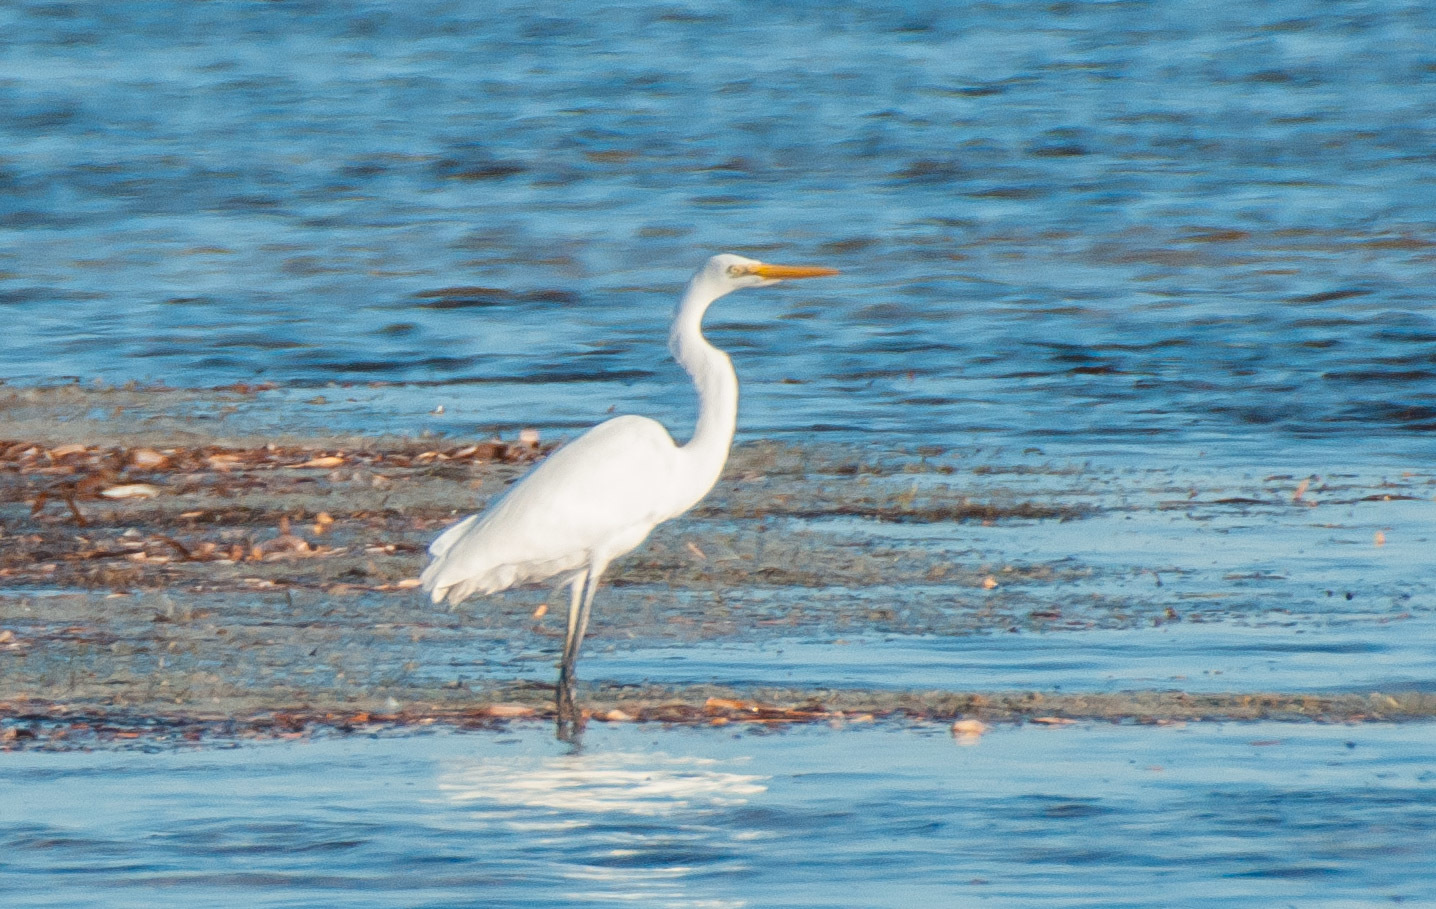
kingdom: Animalia
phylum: Chordata
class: Aves
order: Pelecaniformes
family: Ardeidae
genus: Ardea
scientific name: Ardea modesta
